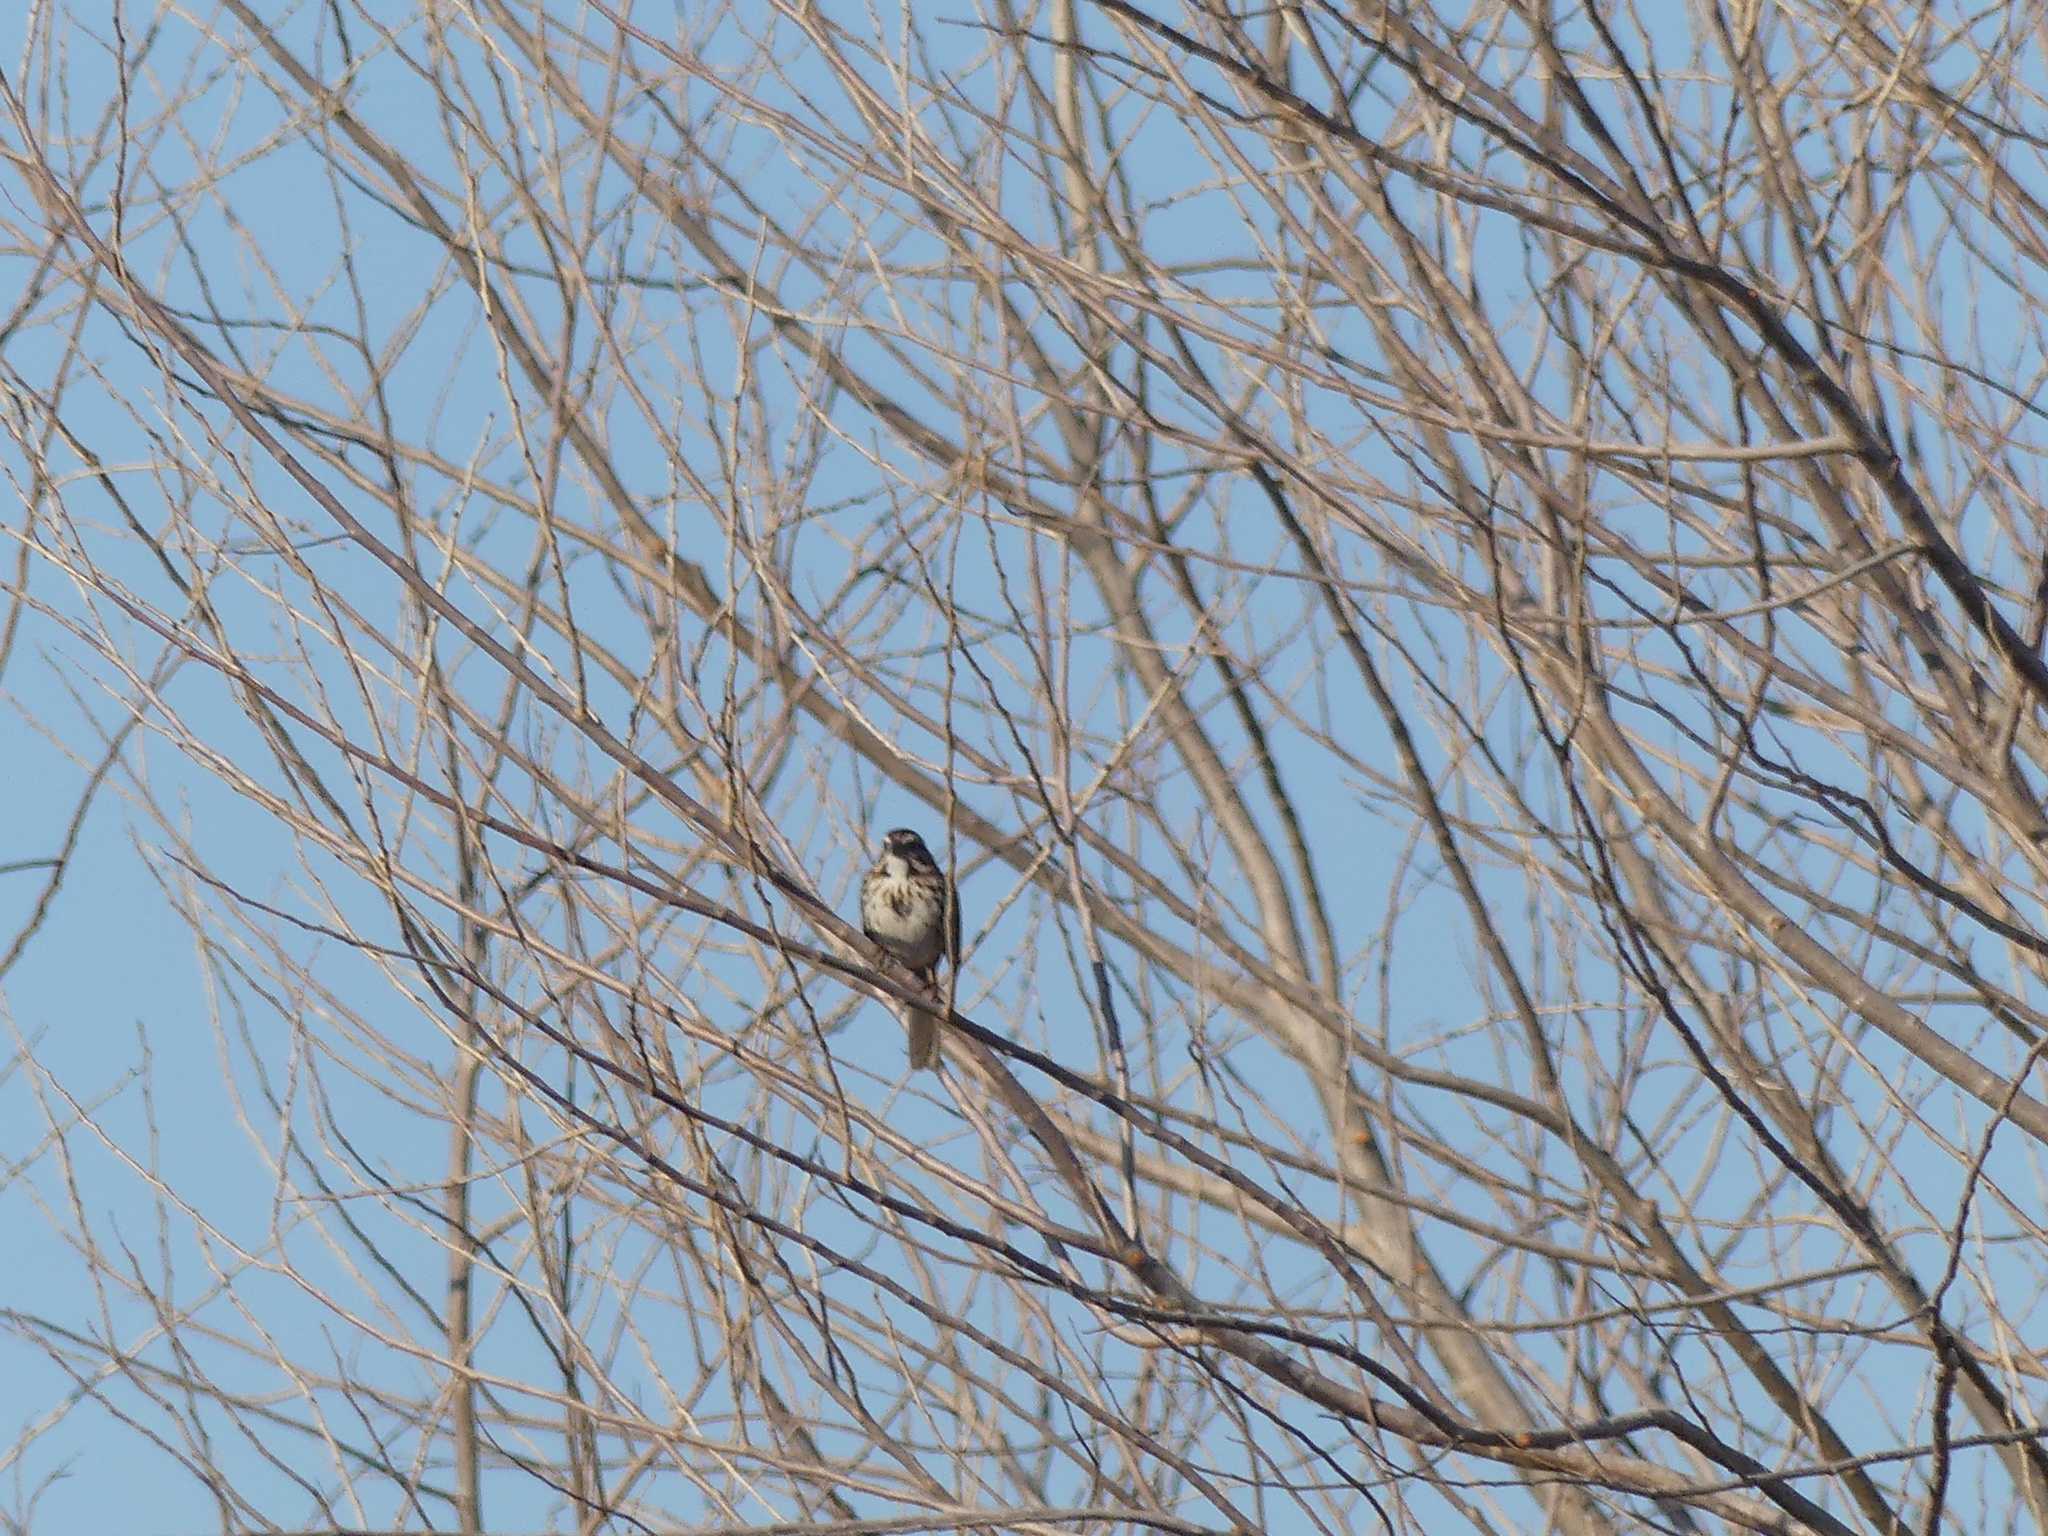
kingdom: Animalia
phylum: Chordata
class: Aves
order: Passeriformes
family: Passerellidae
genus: Melospiza
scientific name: Melospiza melodia
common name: Song sparrow
